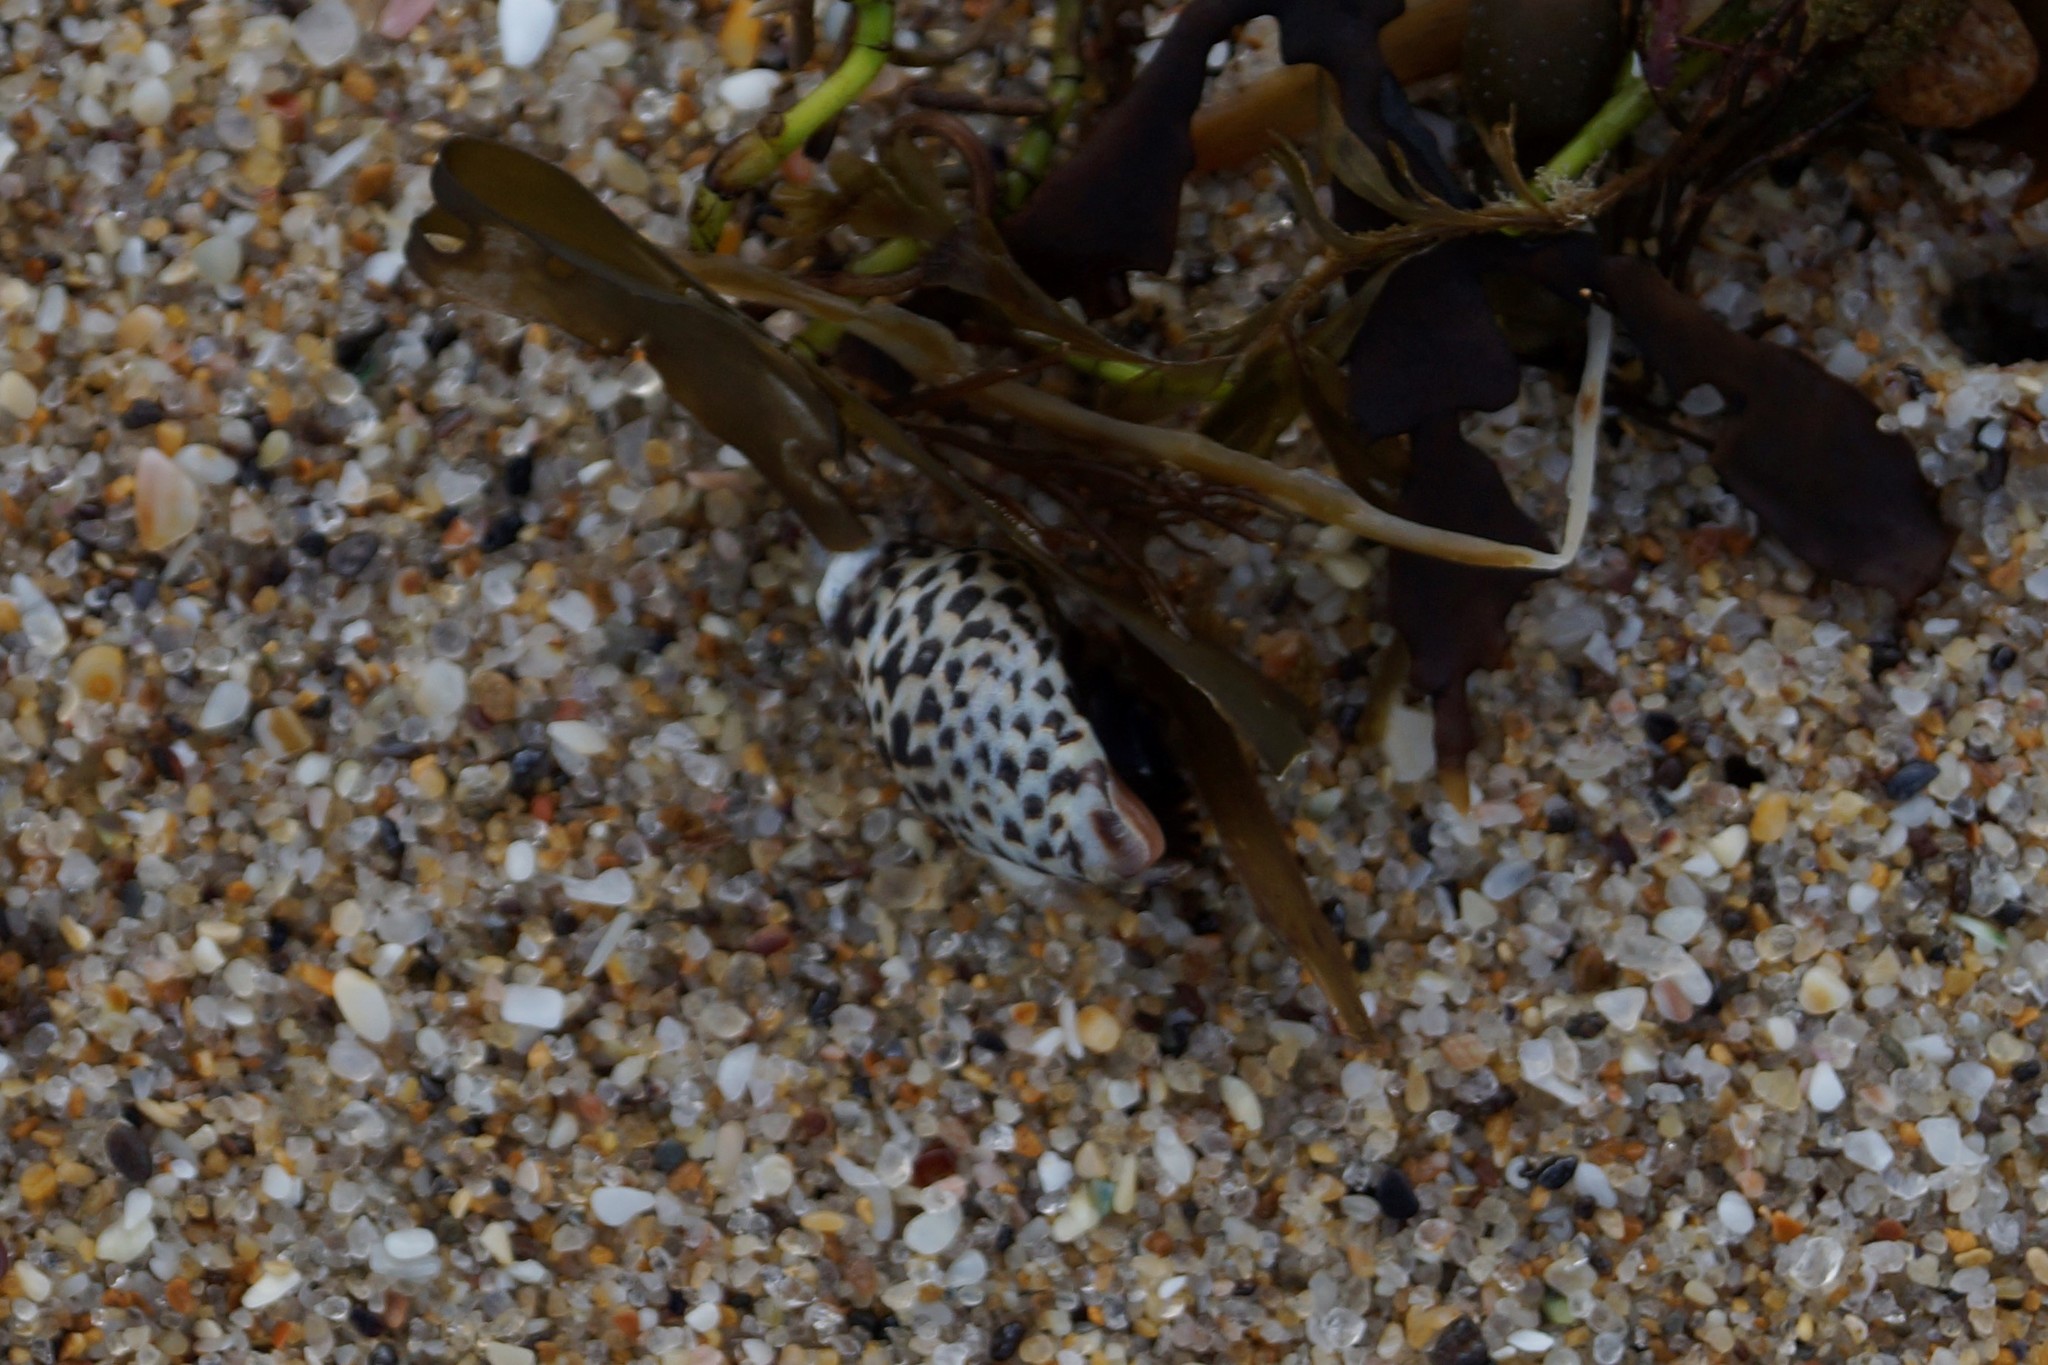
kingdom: Animalia
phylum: Mollusca
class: Gastropoda
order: Neogastropoda
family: Cominellidae
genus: Cominella
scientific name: Cominella lineolata
